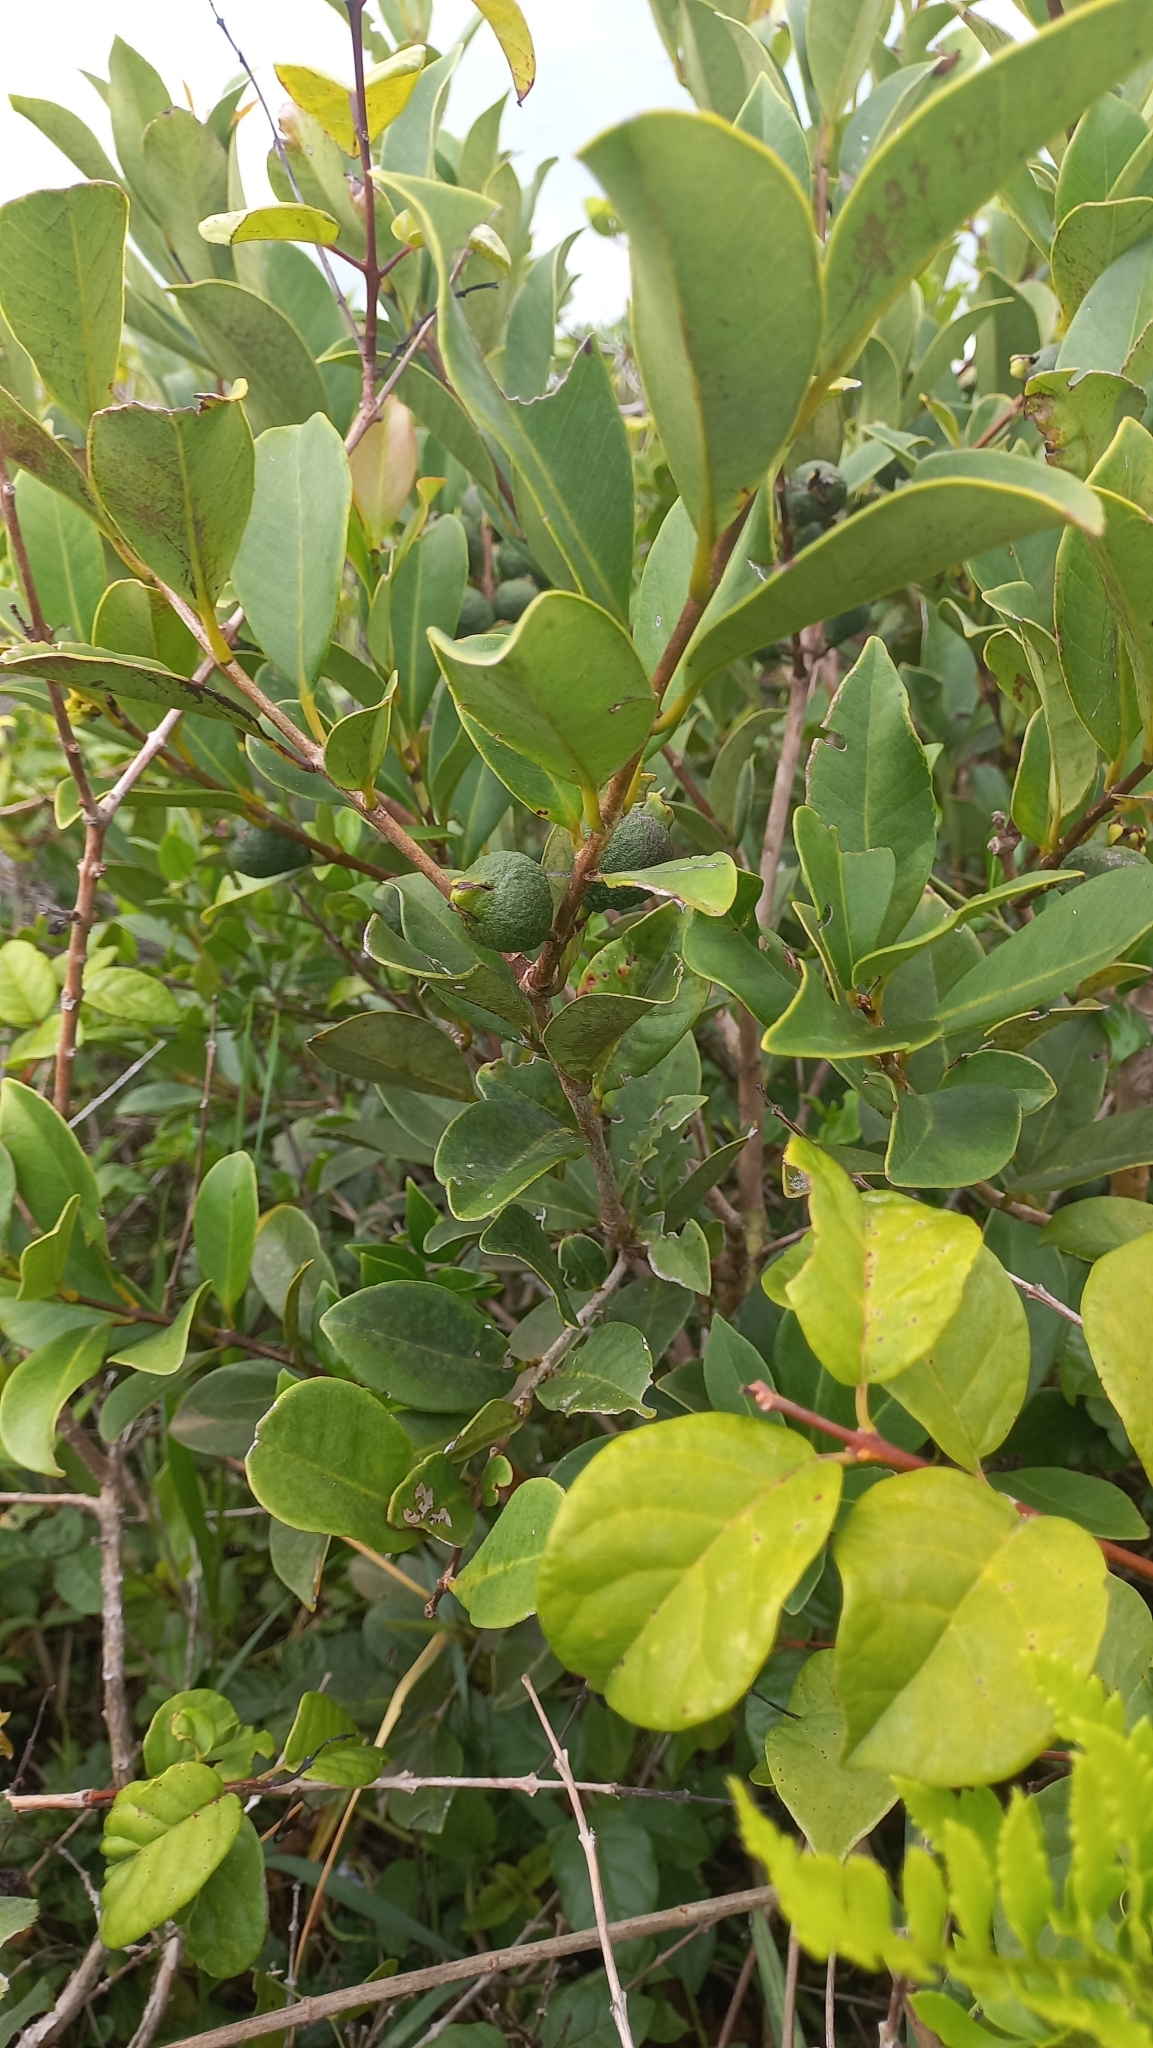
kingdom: Plantae
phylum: Tracheophyta
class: Magnoliopsida
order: Myrtales
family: Myrtaceae
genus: Psidium
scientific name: Psidium cattleianum
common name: Strawberry guava
